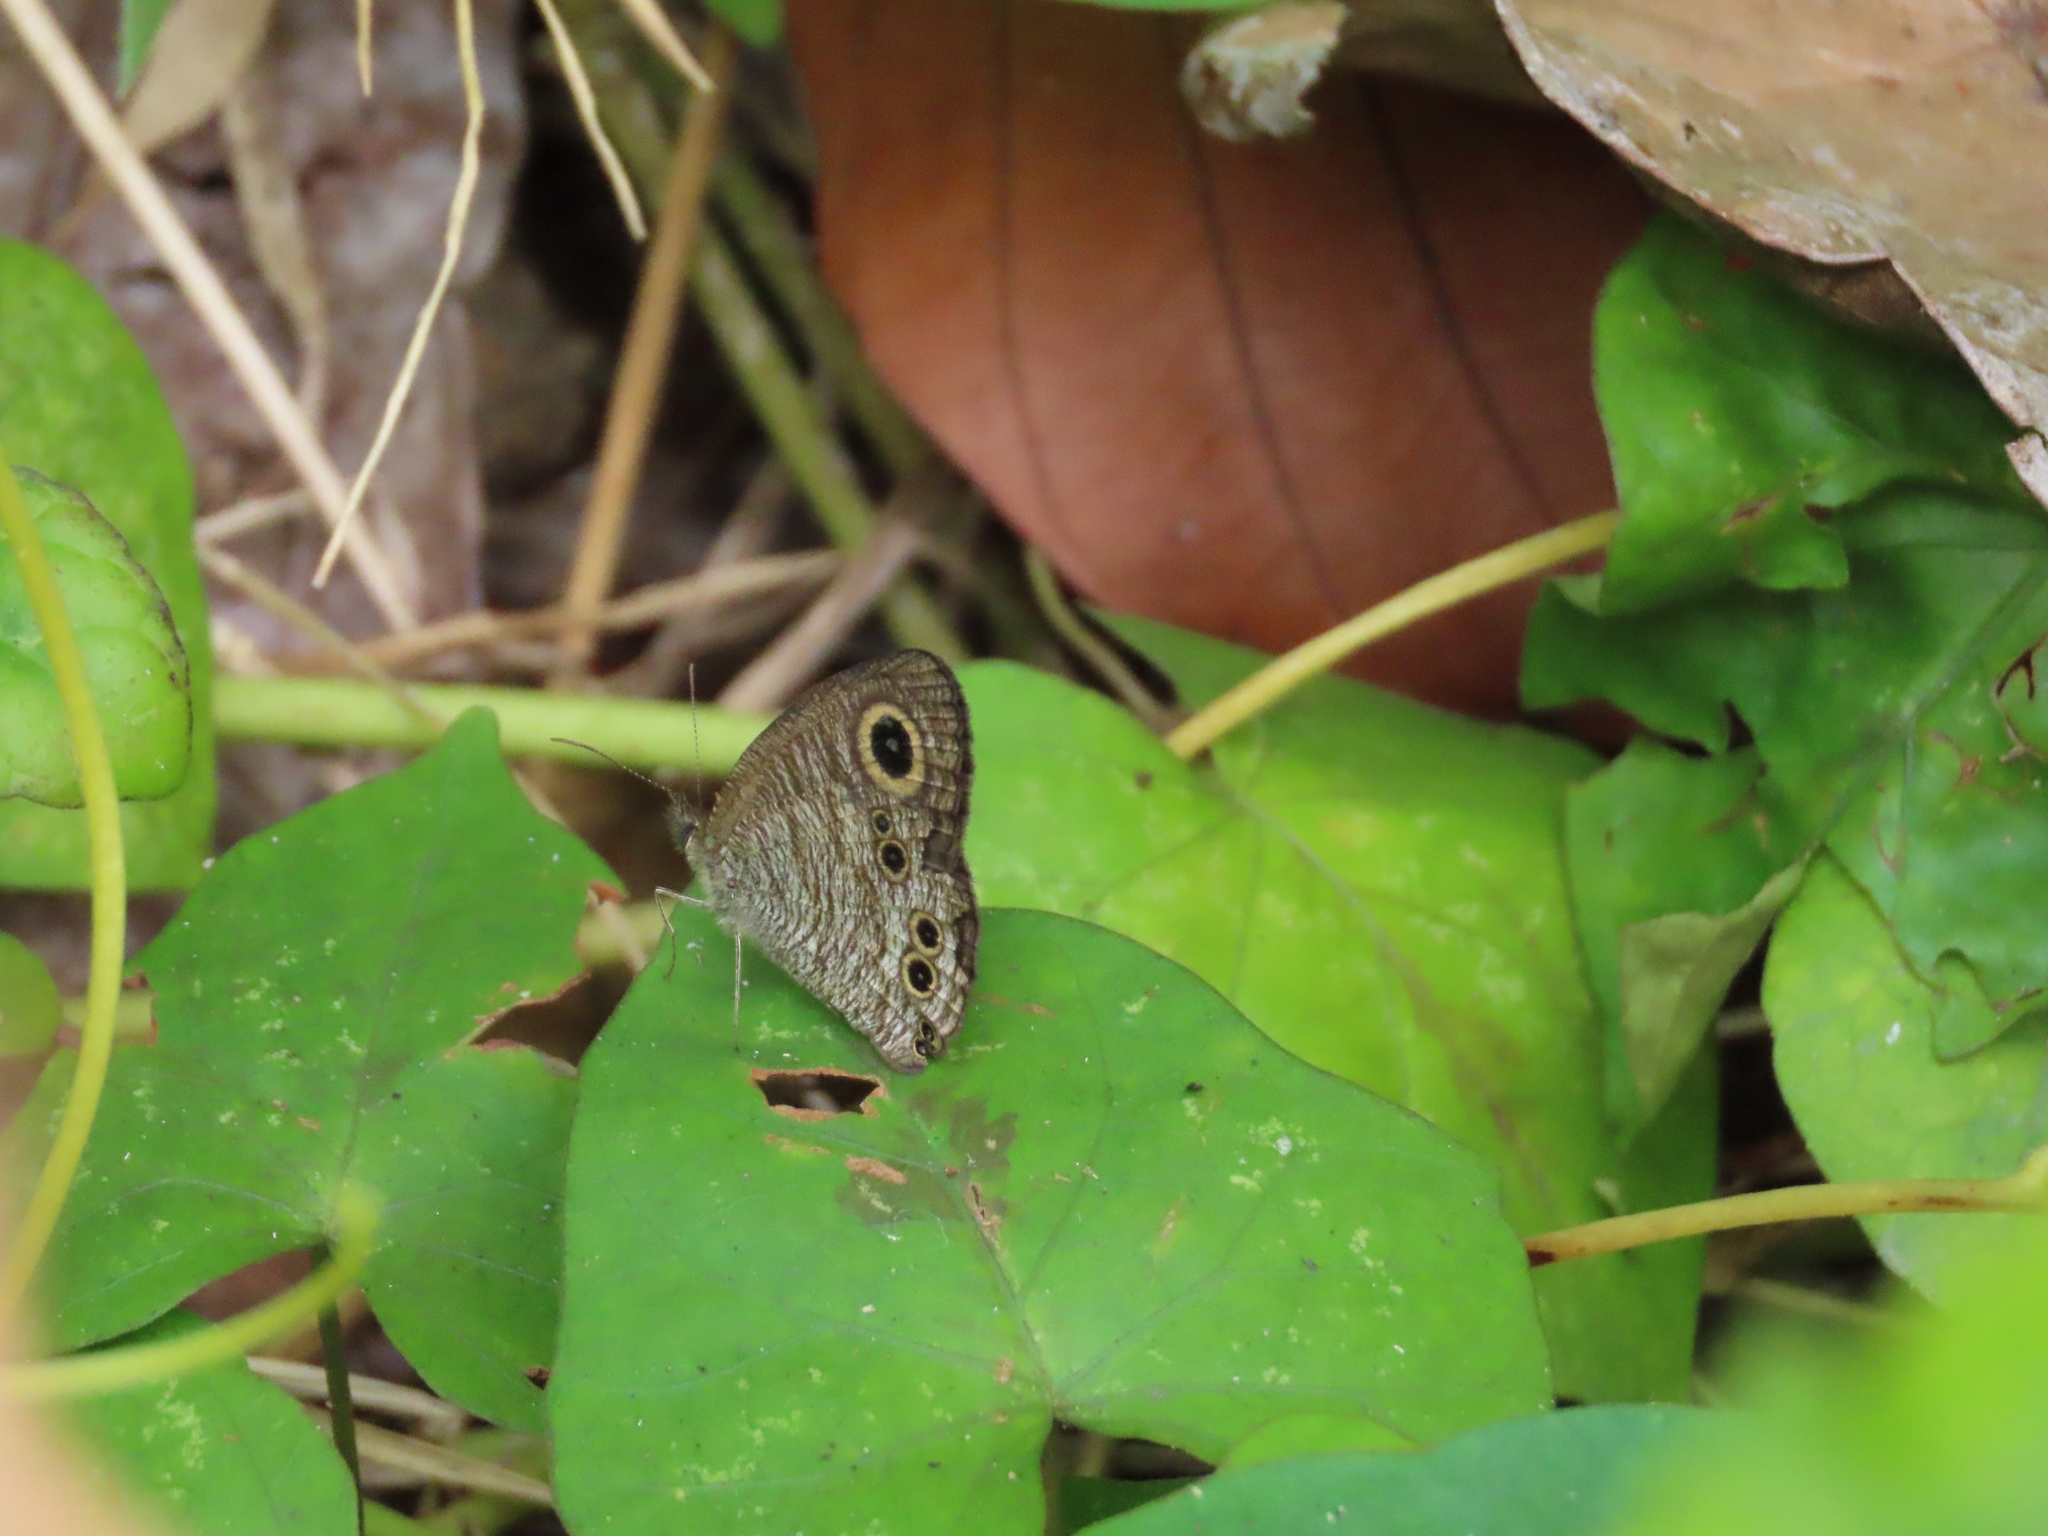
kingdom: Animalia
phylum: Arthropoda
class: Insecta
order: Lepidoptera
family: Nymphalidae
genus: Ypthima
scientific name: Ypthima baldus
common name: Common five-ring
